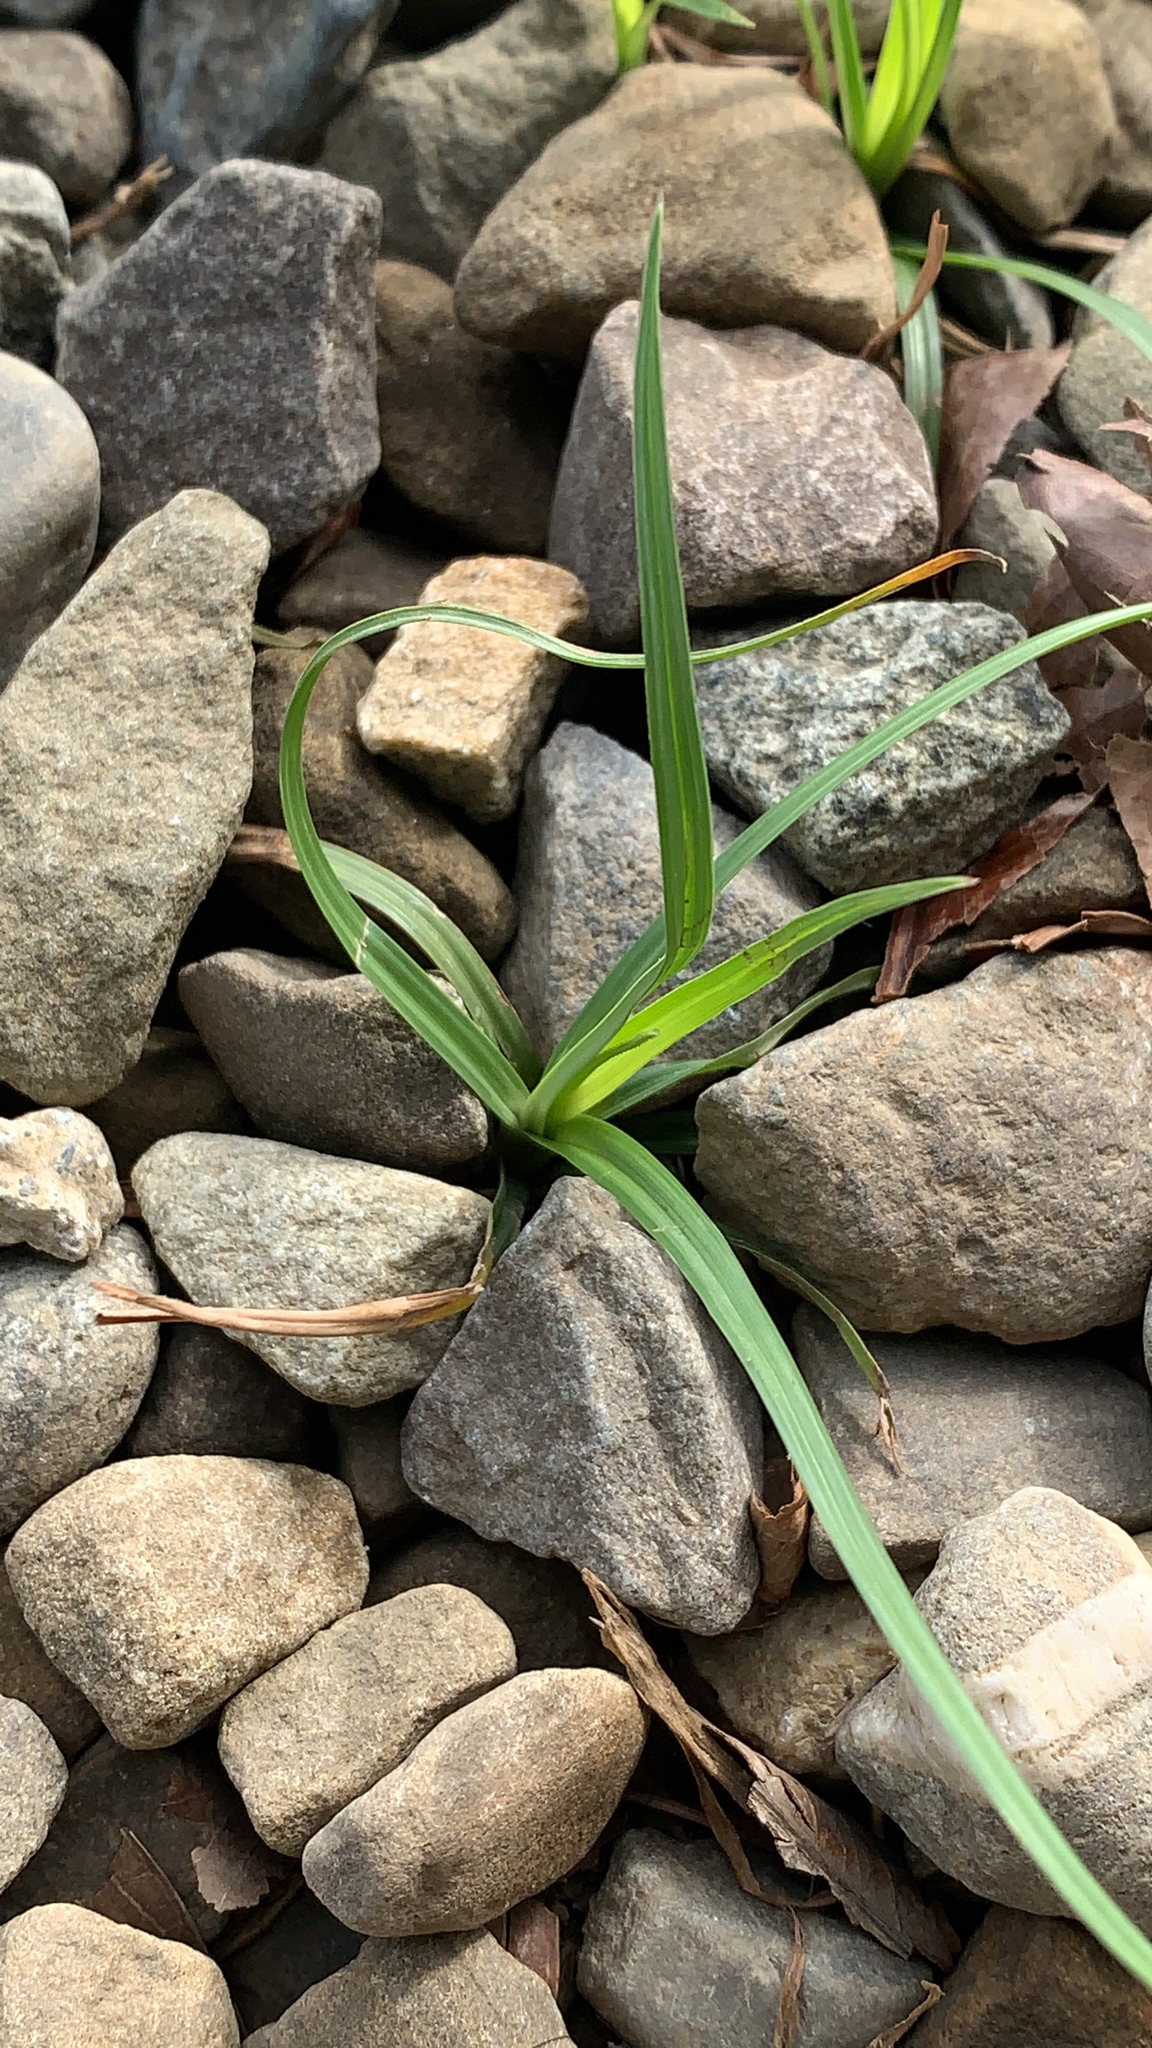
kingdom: Plantae
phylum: Tracheophyta
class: Liliopsida
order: Poales
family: Cyperaceae
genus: Cyperus
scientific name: Cyperus rotundus
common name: Nutgrass
